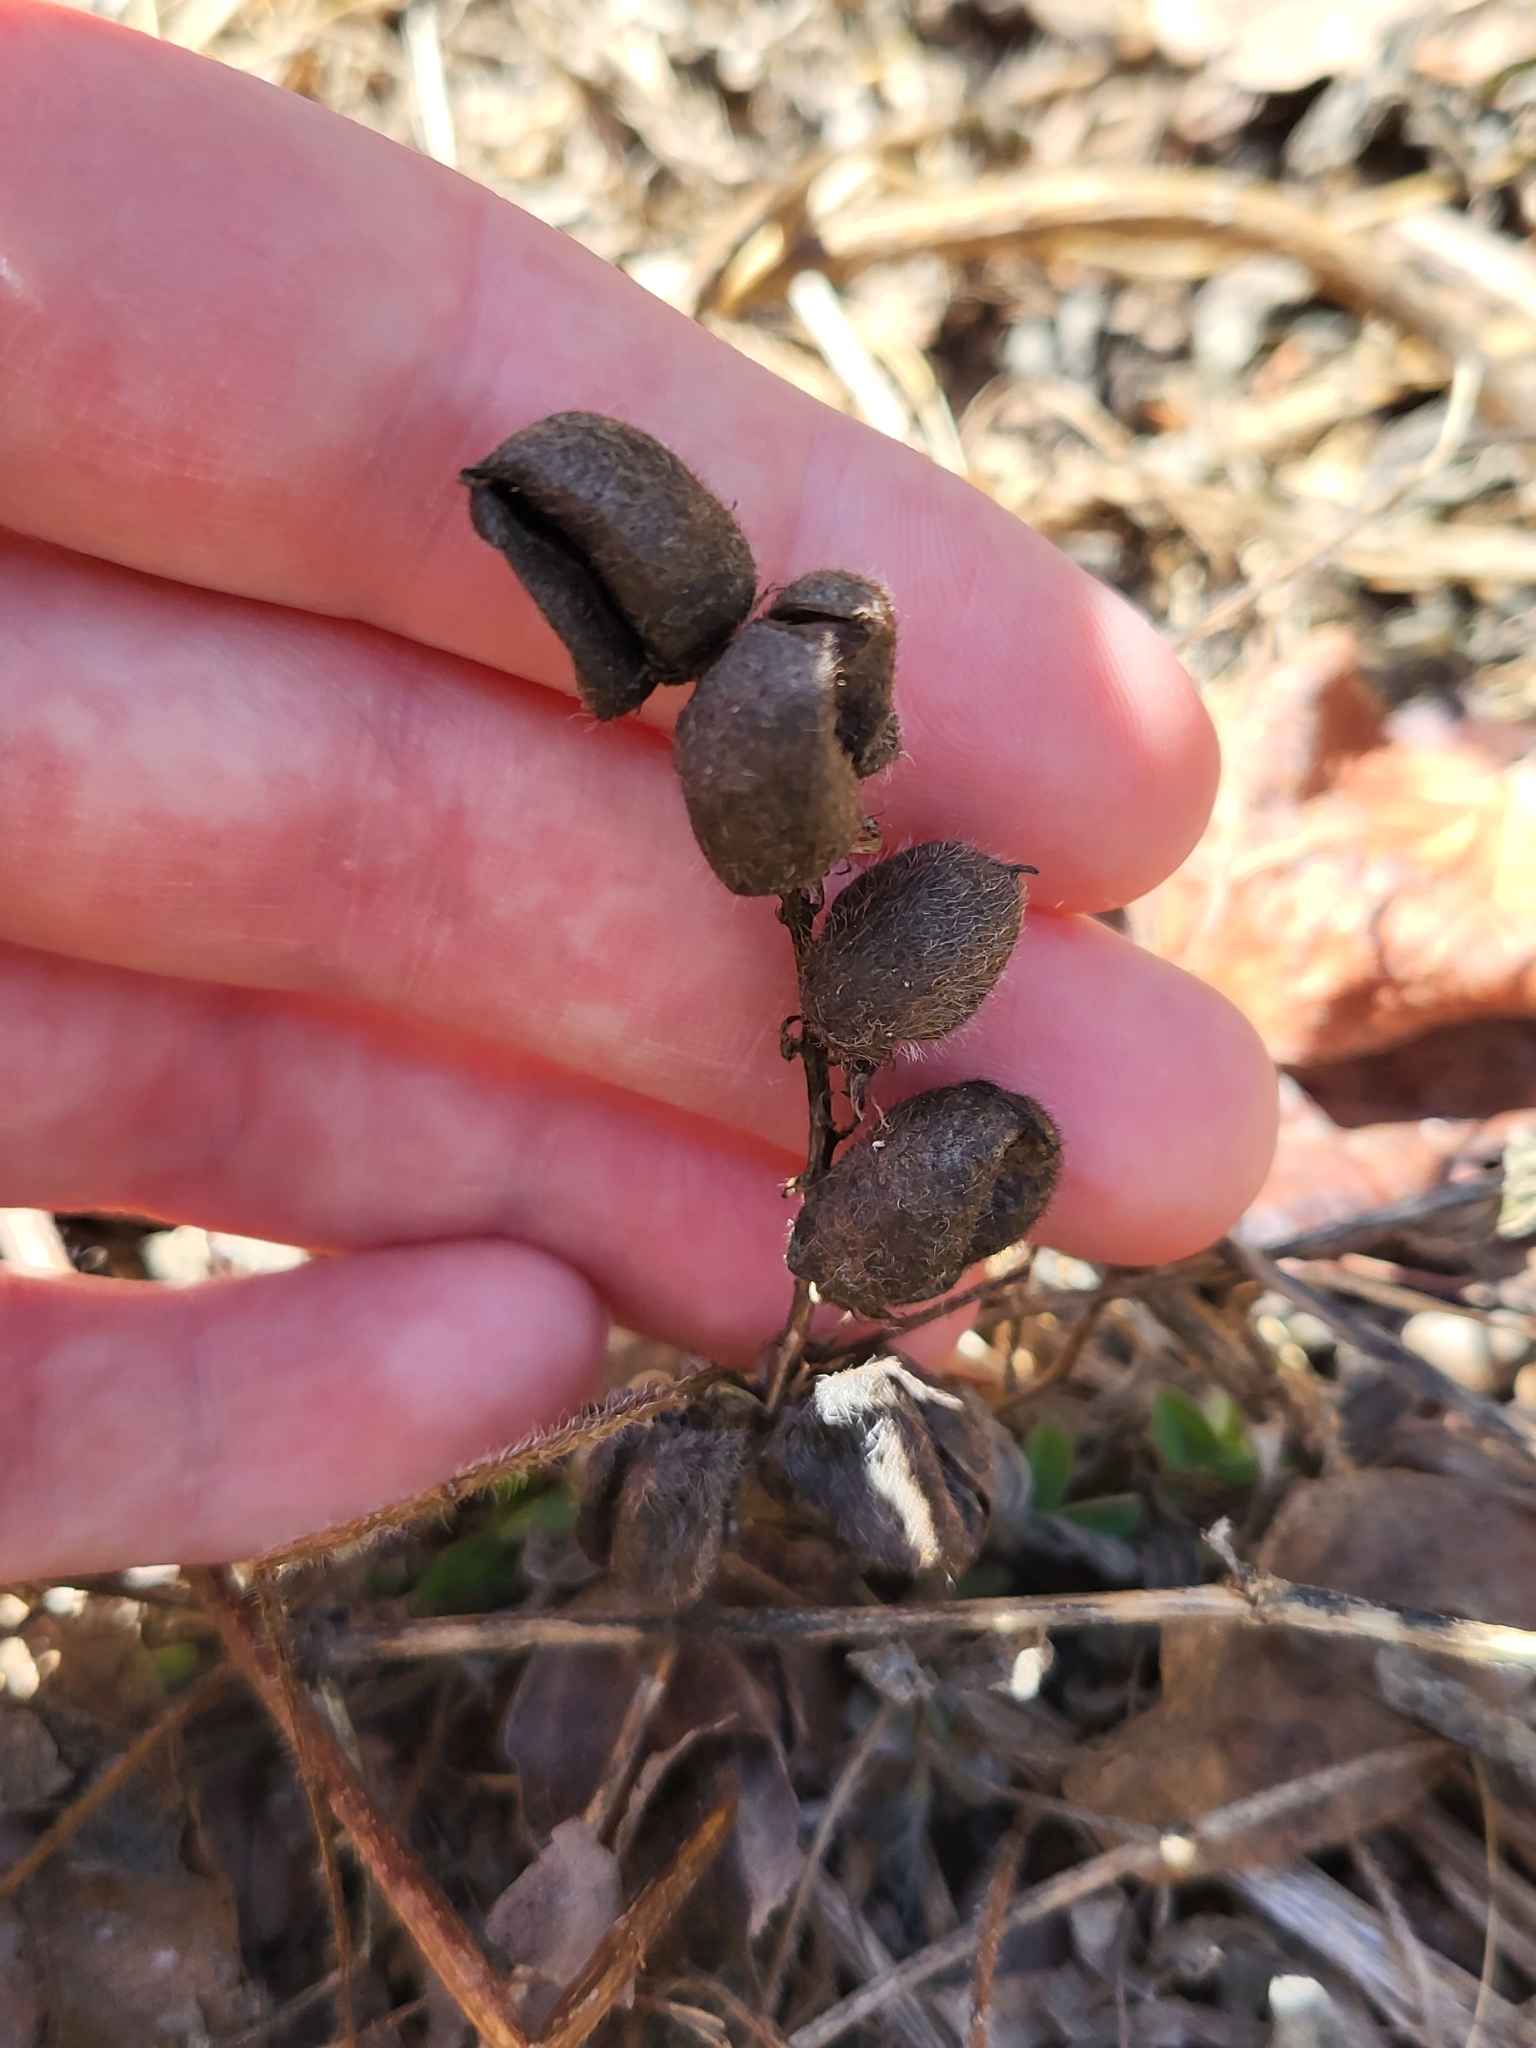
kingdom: Plantae
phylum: Tracheophyta
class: Magnoliopsida
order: Fabales
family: Fabaceae
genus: Astragalus
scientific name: Astragalus cicer
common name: Chick-pea milk-vetch
